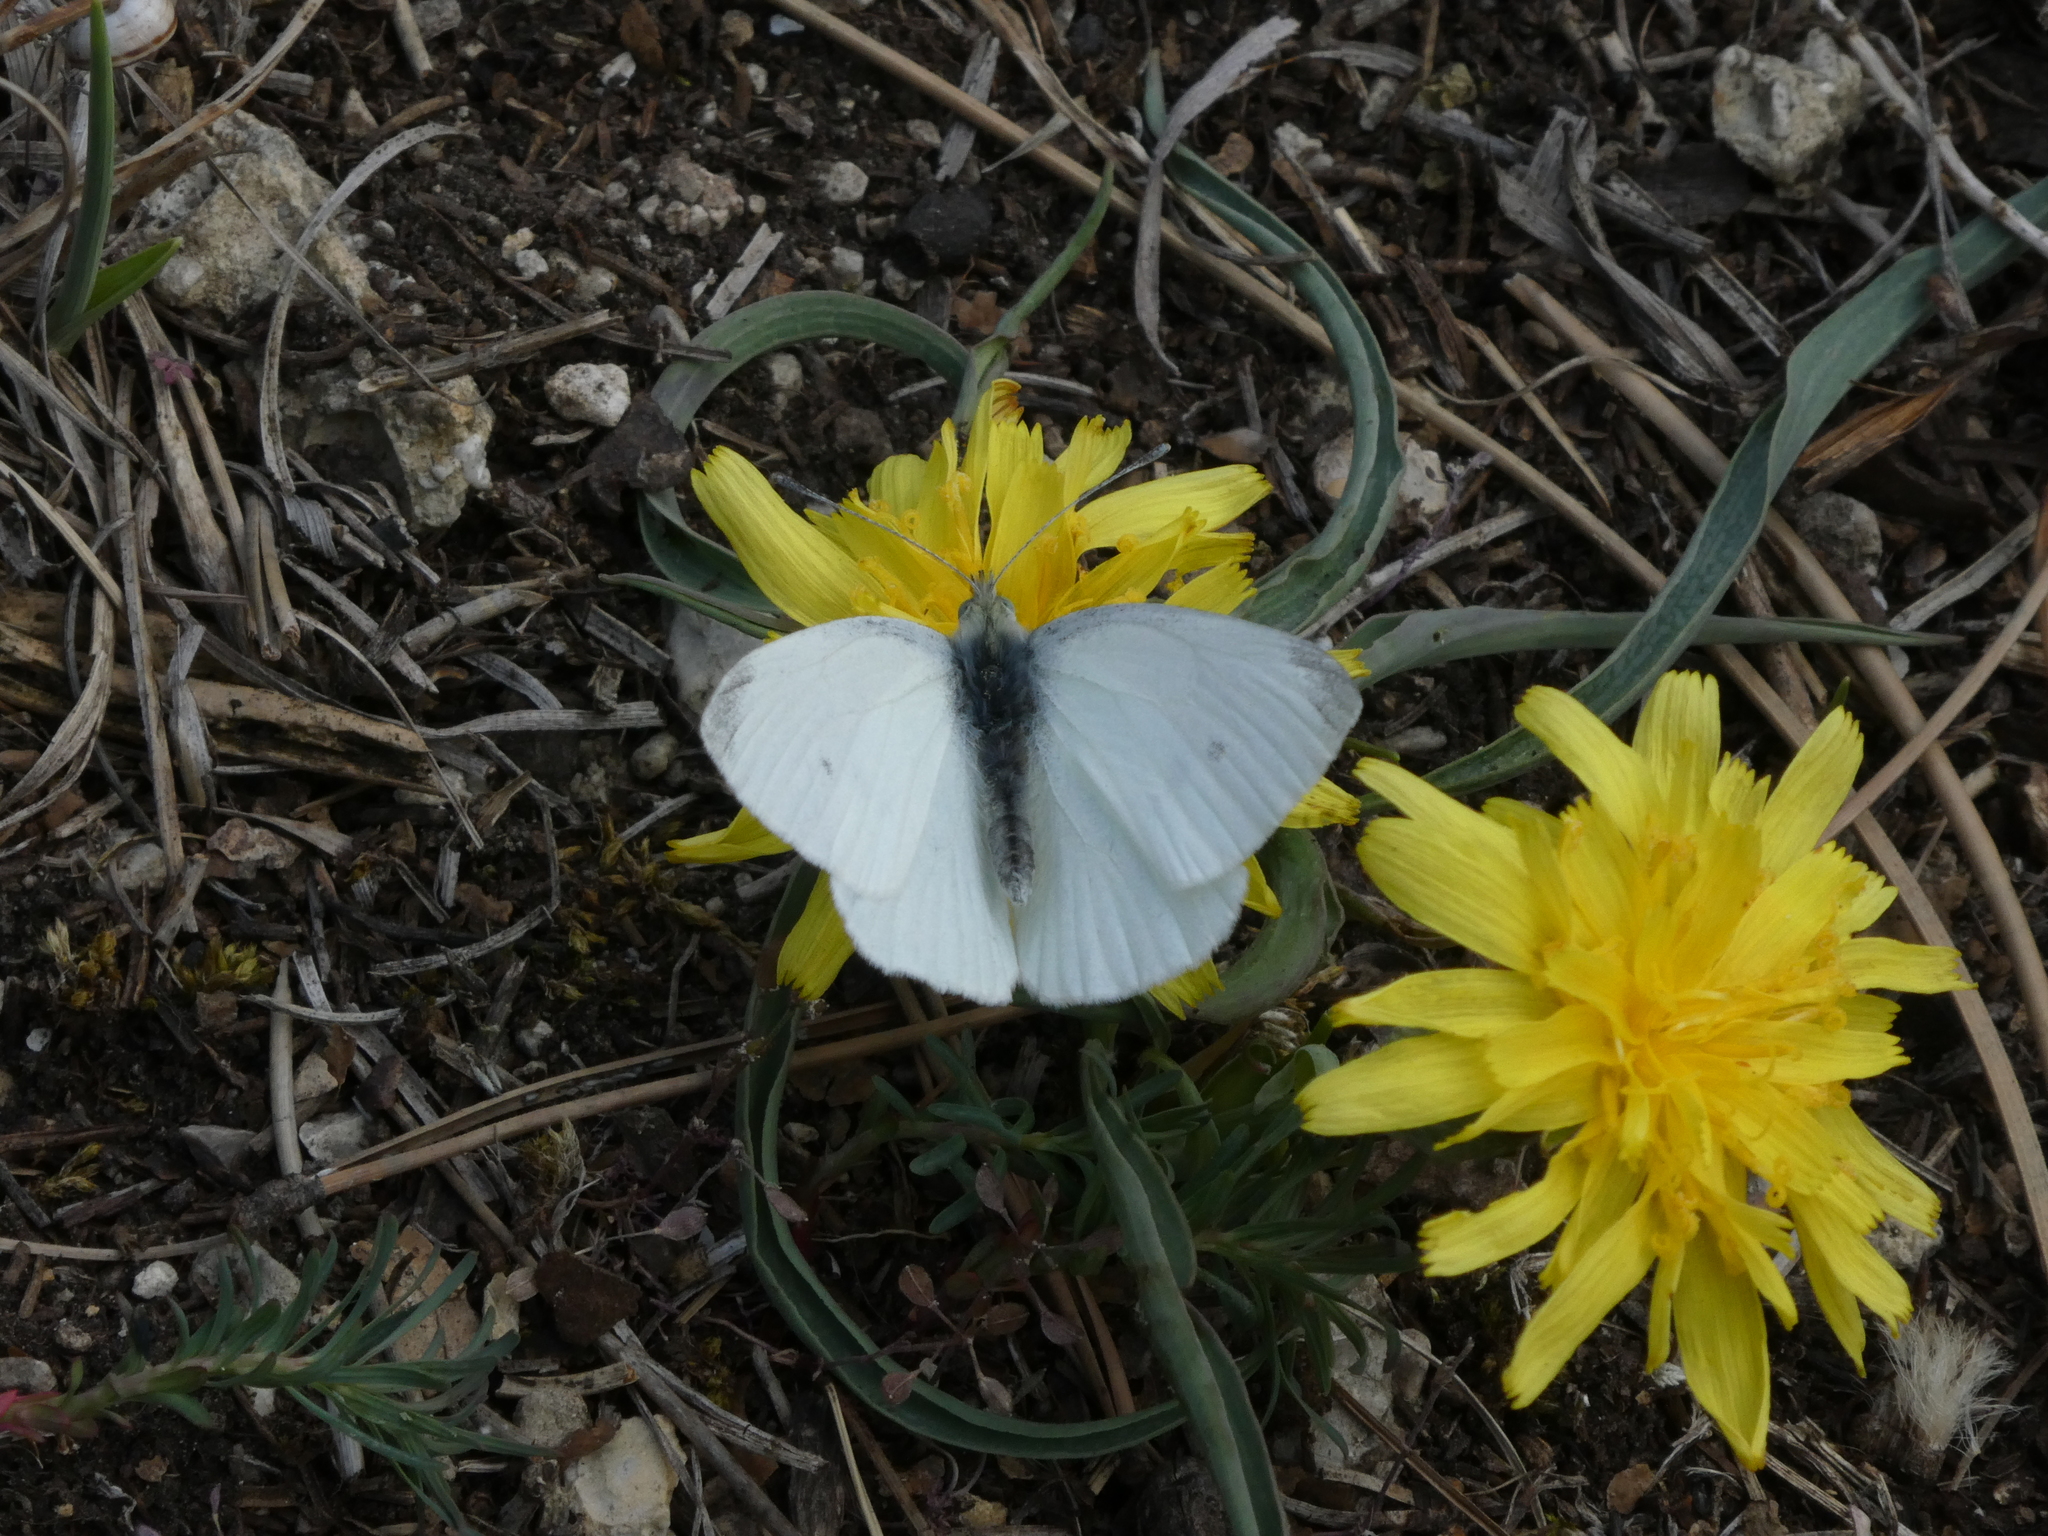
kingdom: Animalia
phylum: Arthropoda
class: Insecta
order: Lepidoptera
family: Pieridae
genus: Pieris
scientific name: Pieris rapae
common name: Small white
